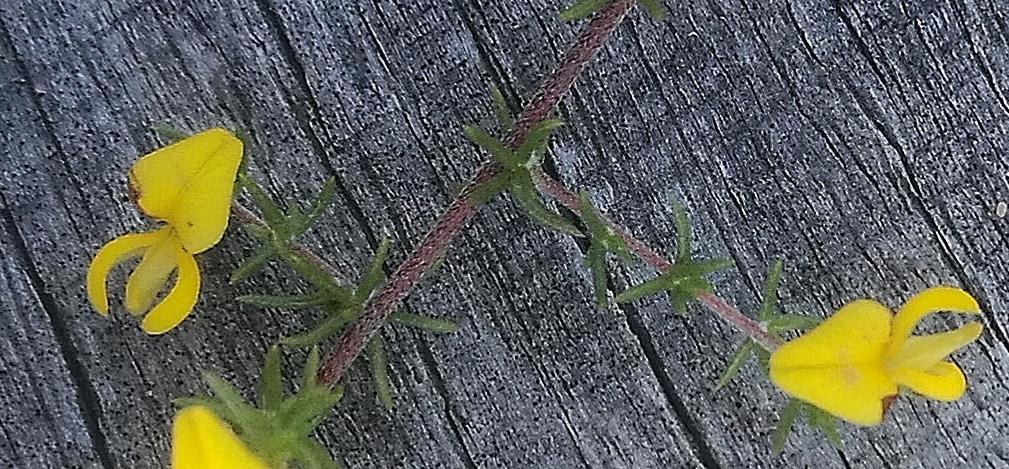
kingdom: Plantae
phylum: Tracheophyta
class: Magnoliopsida
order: Fabales
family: Fabaceae
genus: Aspalathus
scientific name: Aspalathus rubens
